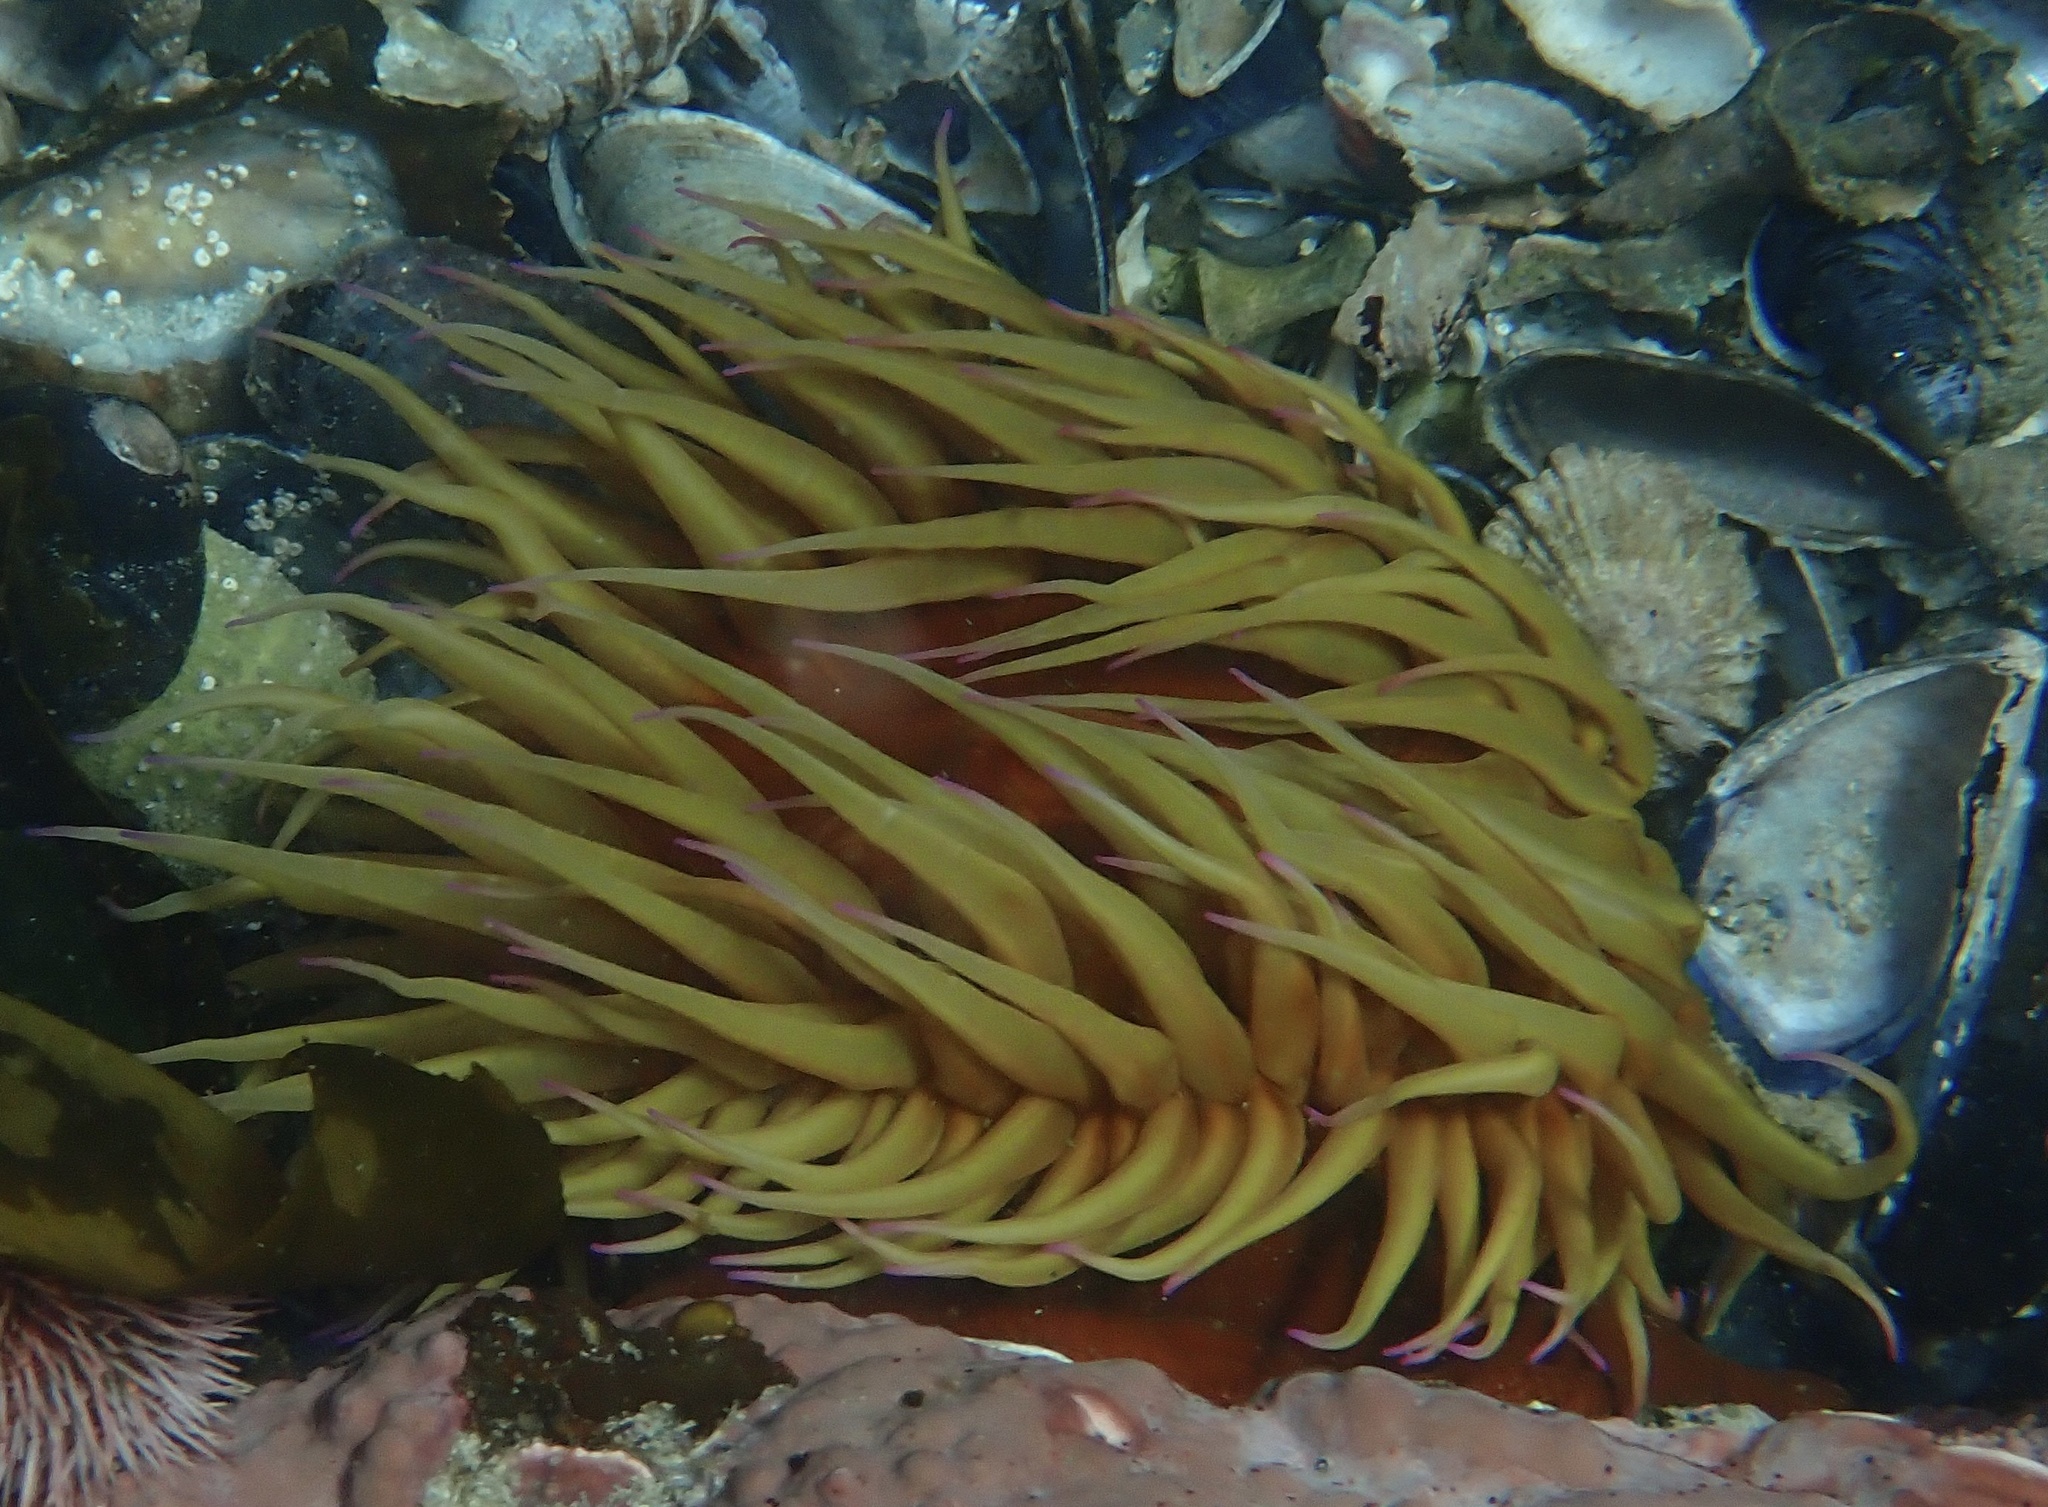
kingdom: Animalia
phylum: Cnidaria
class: Anthozoa
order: Actiniaria
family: Actiniidae
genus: Pseudactinia
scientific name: Pseudactinia flagellifera
